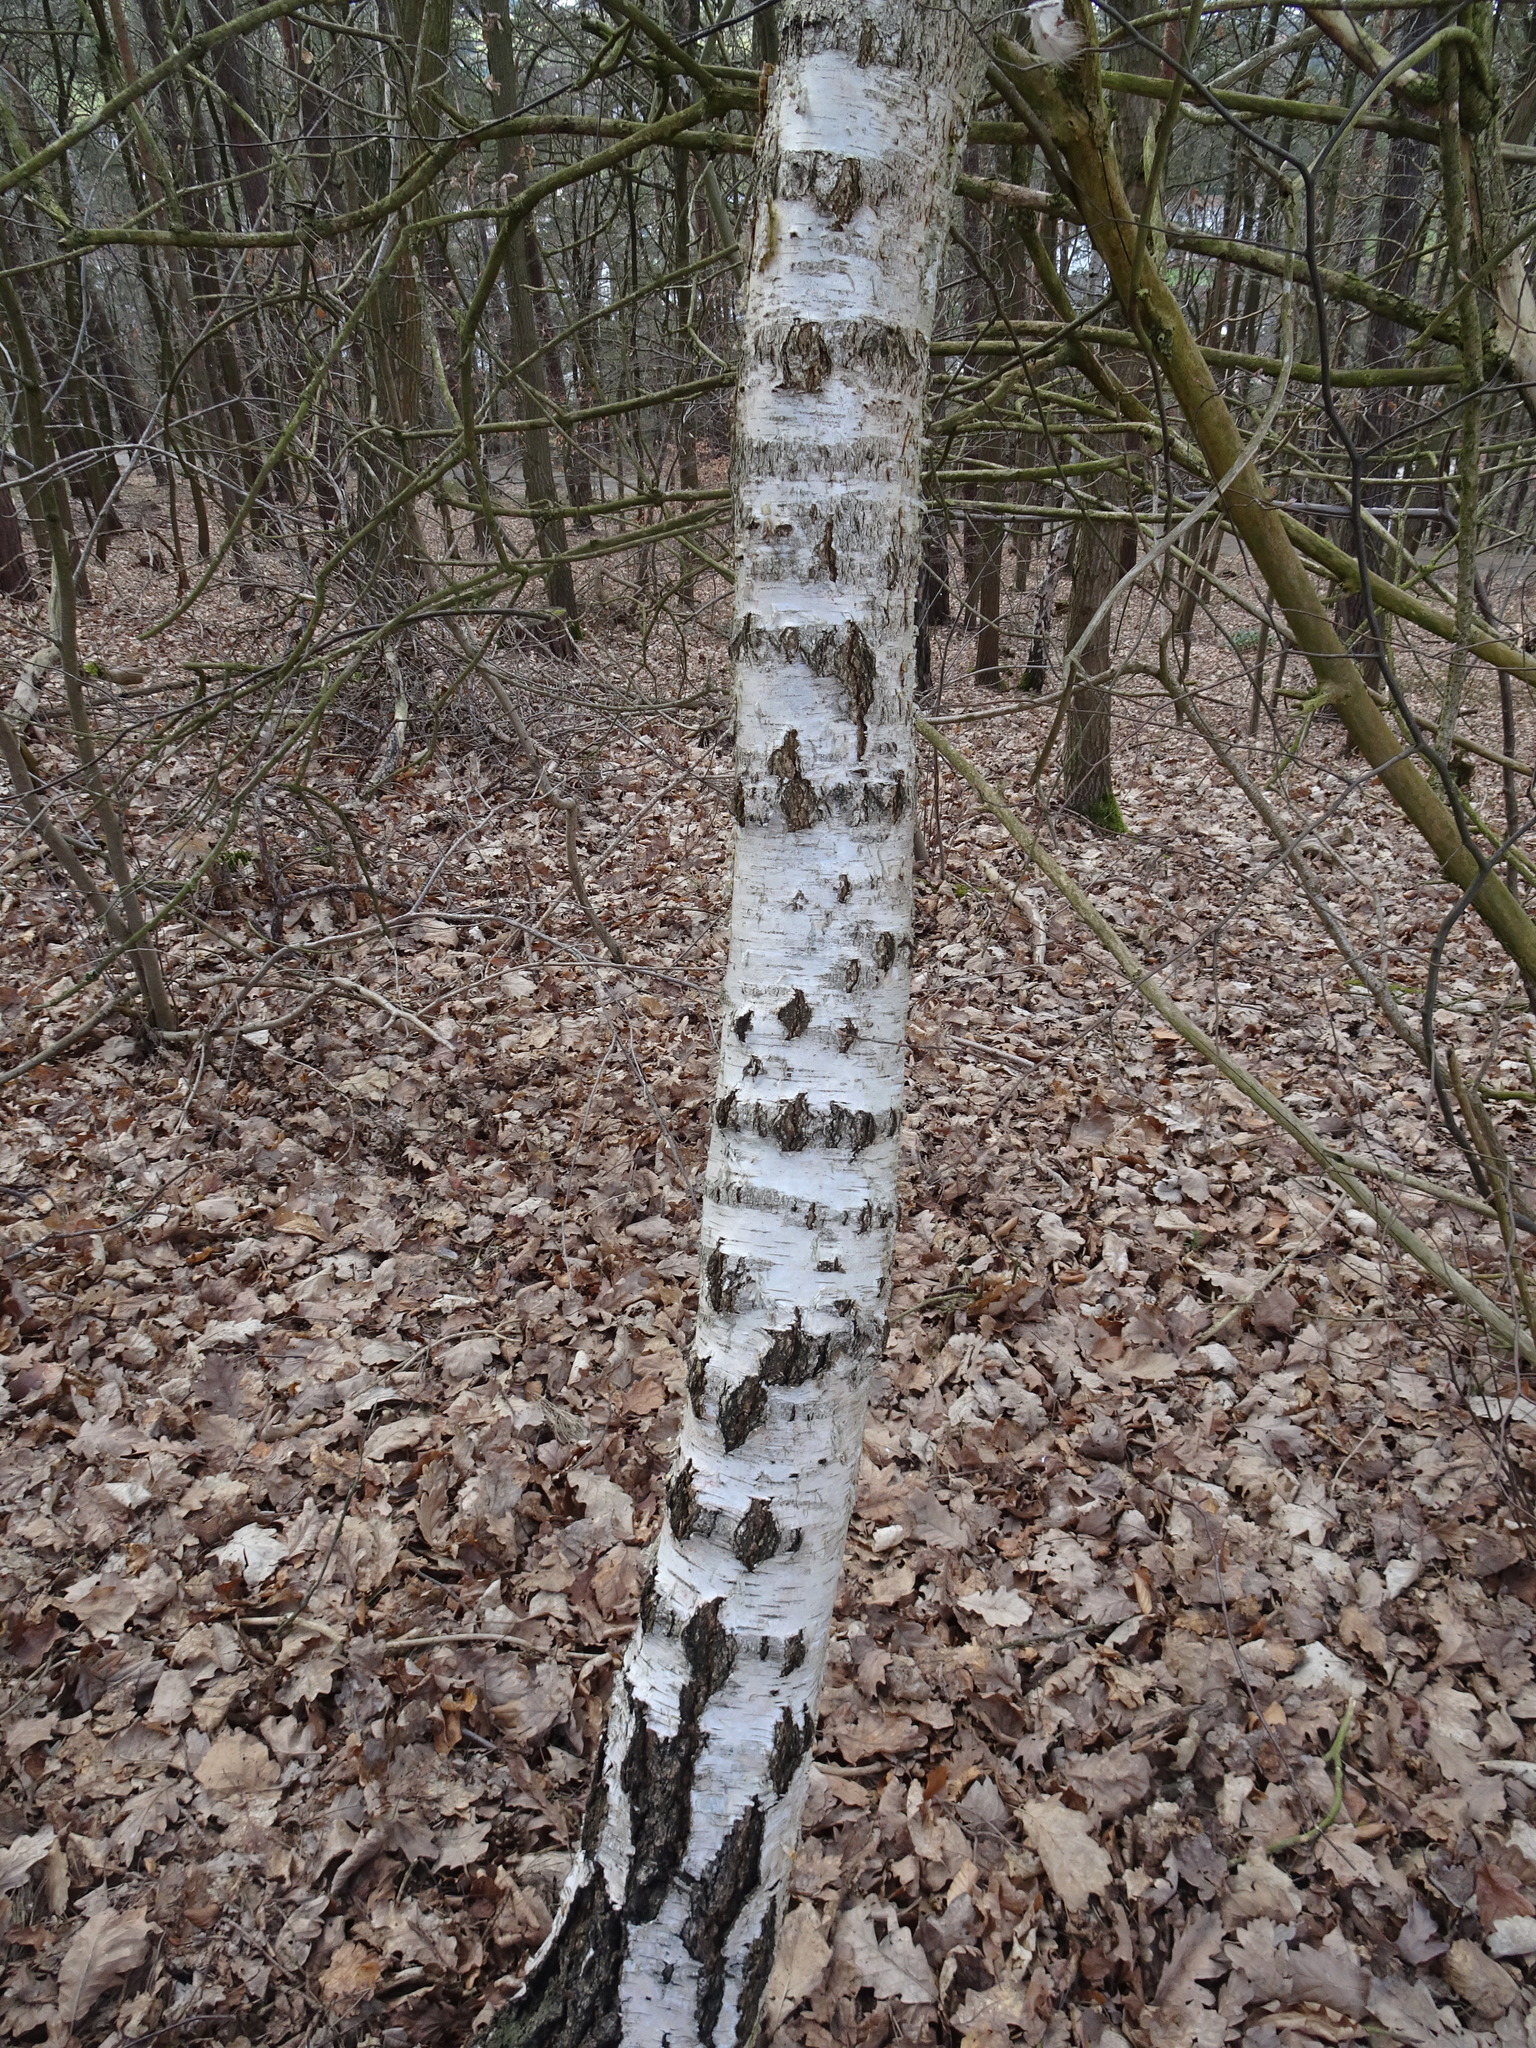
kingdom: Plantae
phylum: Tracheophyta
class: Magnoliopsida
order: Fagales
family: Betulaceae
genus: Betula
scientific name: Betula pendula
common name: Silver birch
